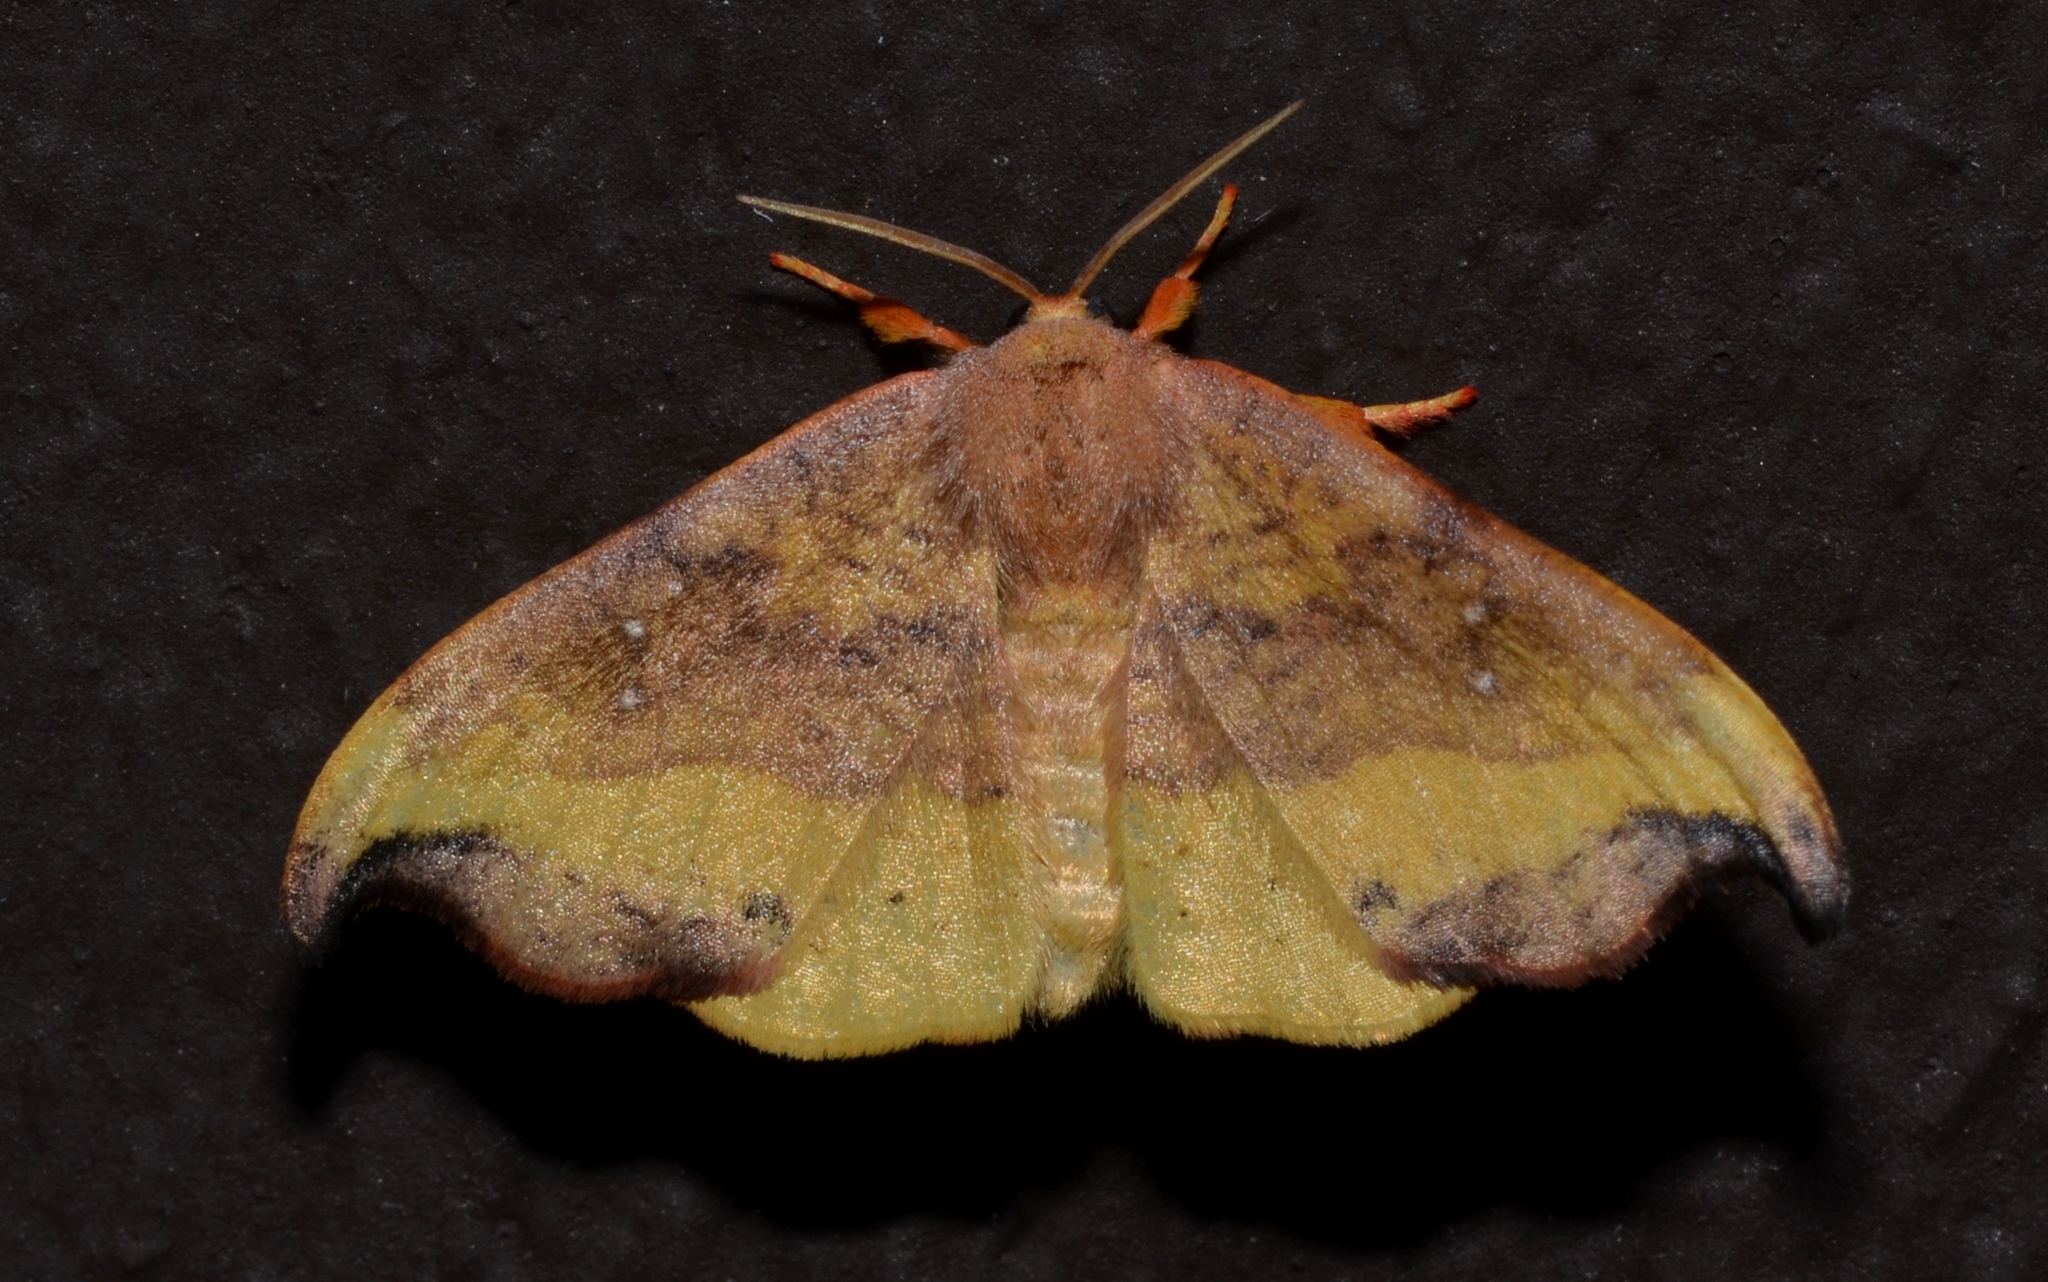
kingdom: Animalia
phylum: Arthropoda
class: Insecta
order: Lepidoptera
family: Drepanidae
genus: Oreta
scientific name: Oreta rosea
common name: Rose hooktip
